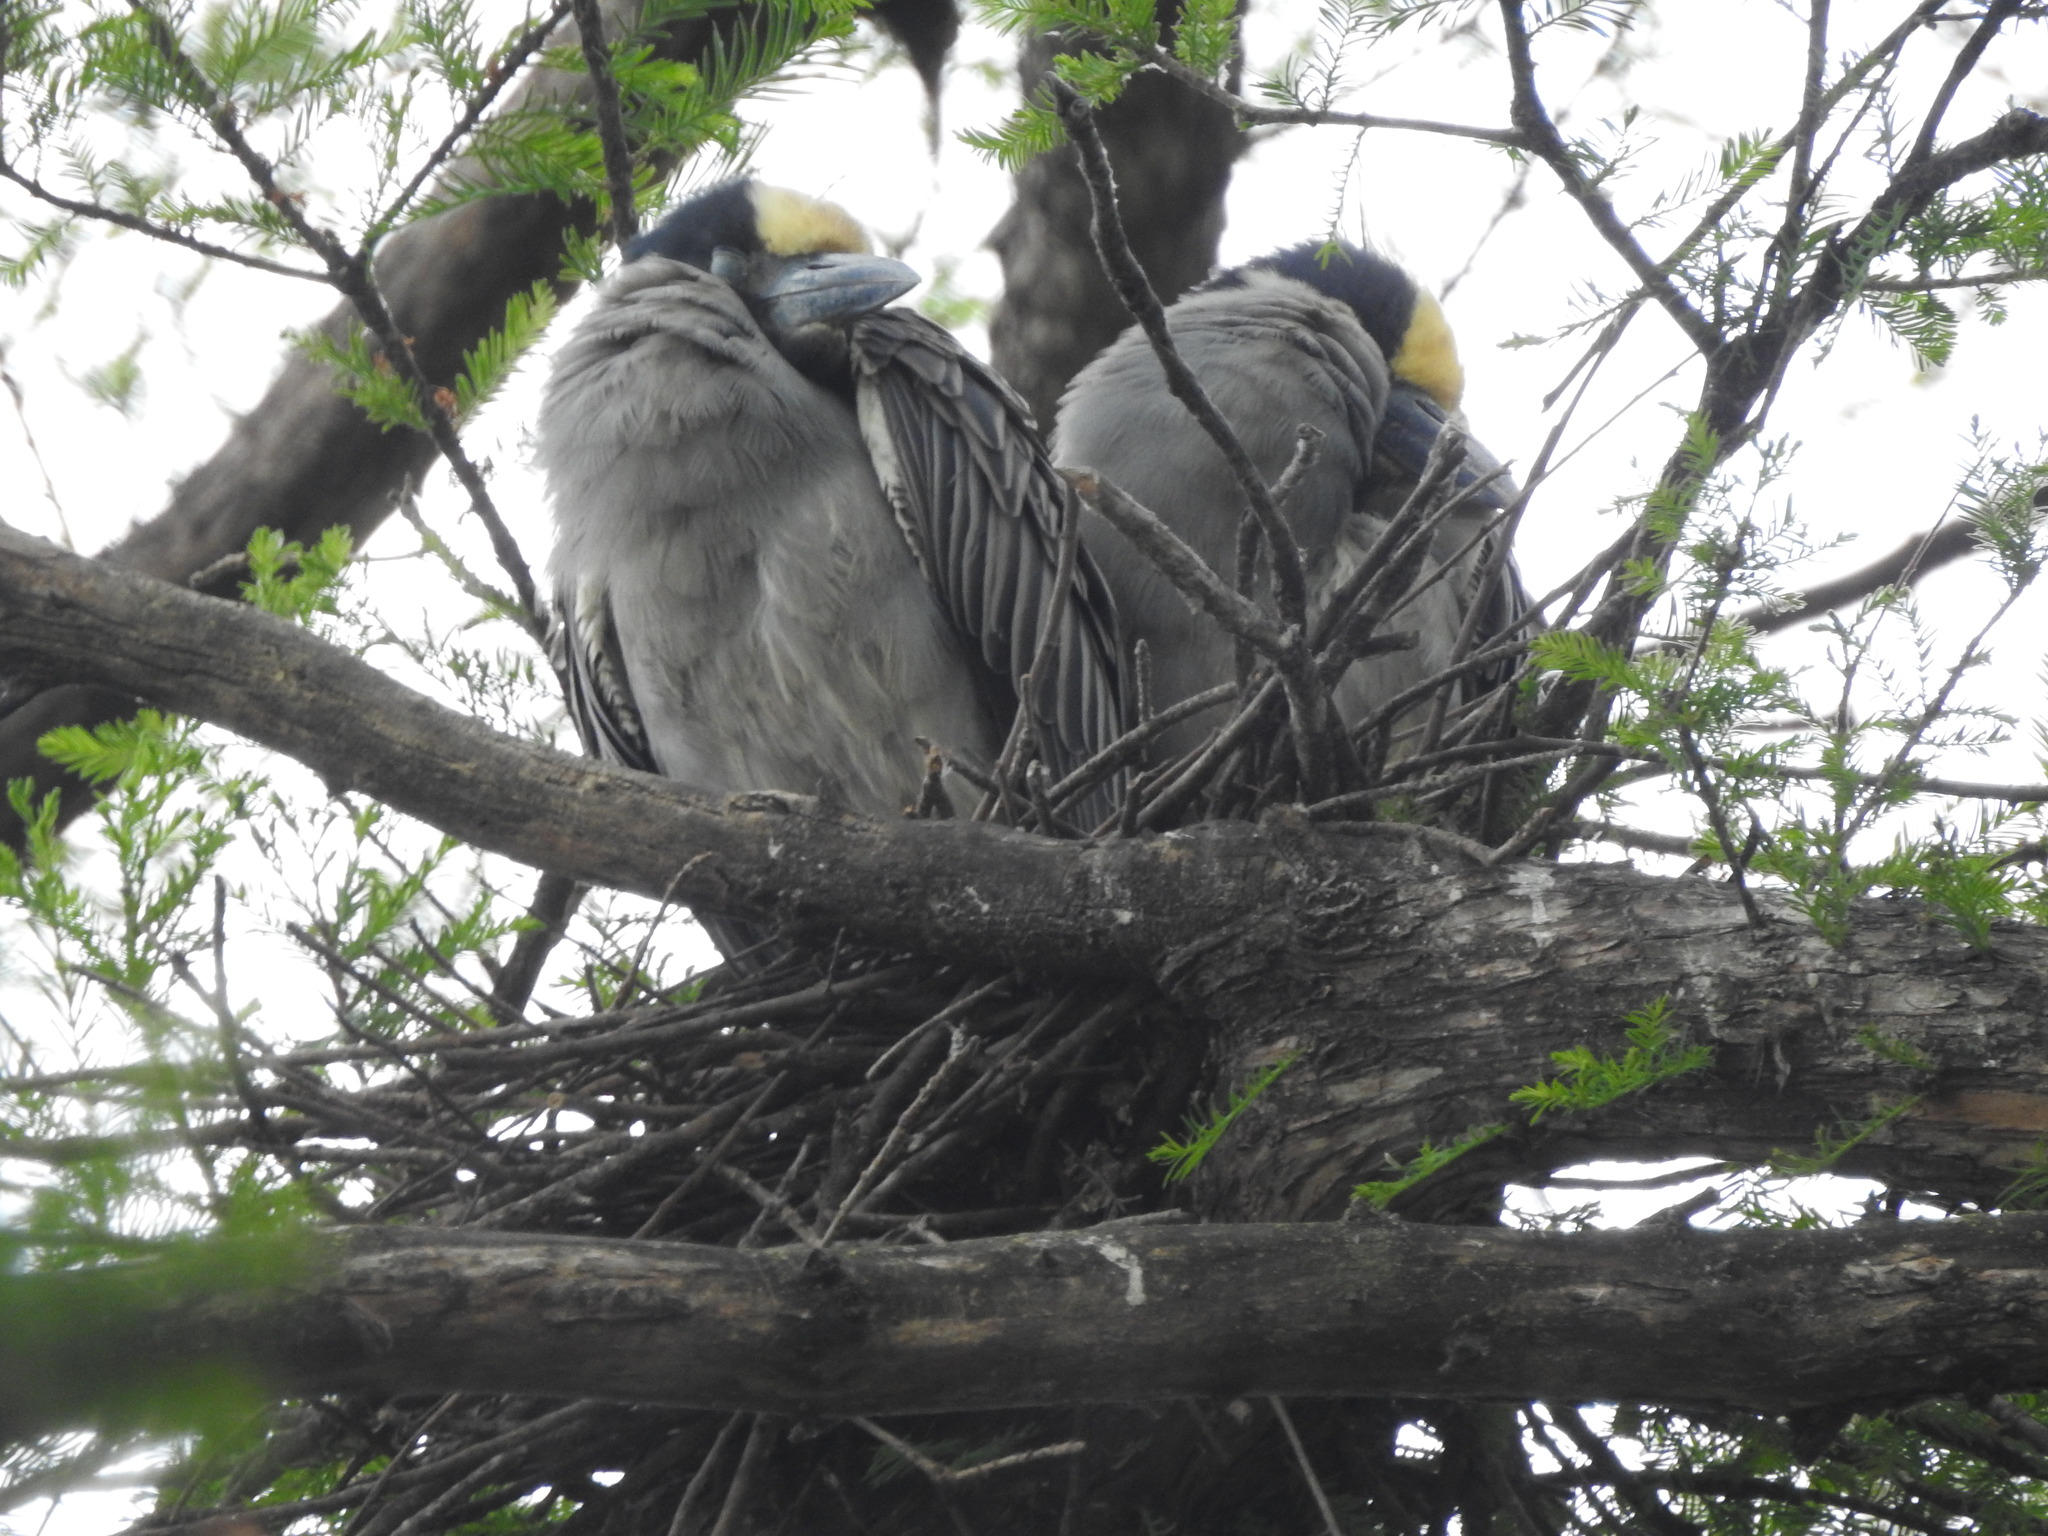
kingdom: Animalia
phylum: Chordata
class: Aves
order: Pelecaniformes
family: Ardeidae
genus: Nyctanassa
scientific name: Nyctanassa violacea
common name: Yellow-crowned night heron
